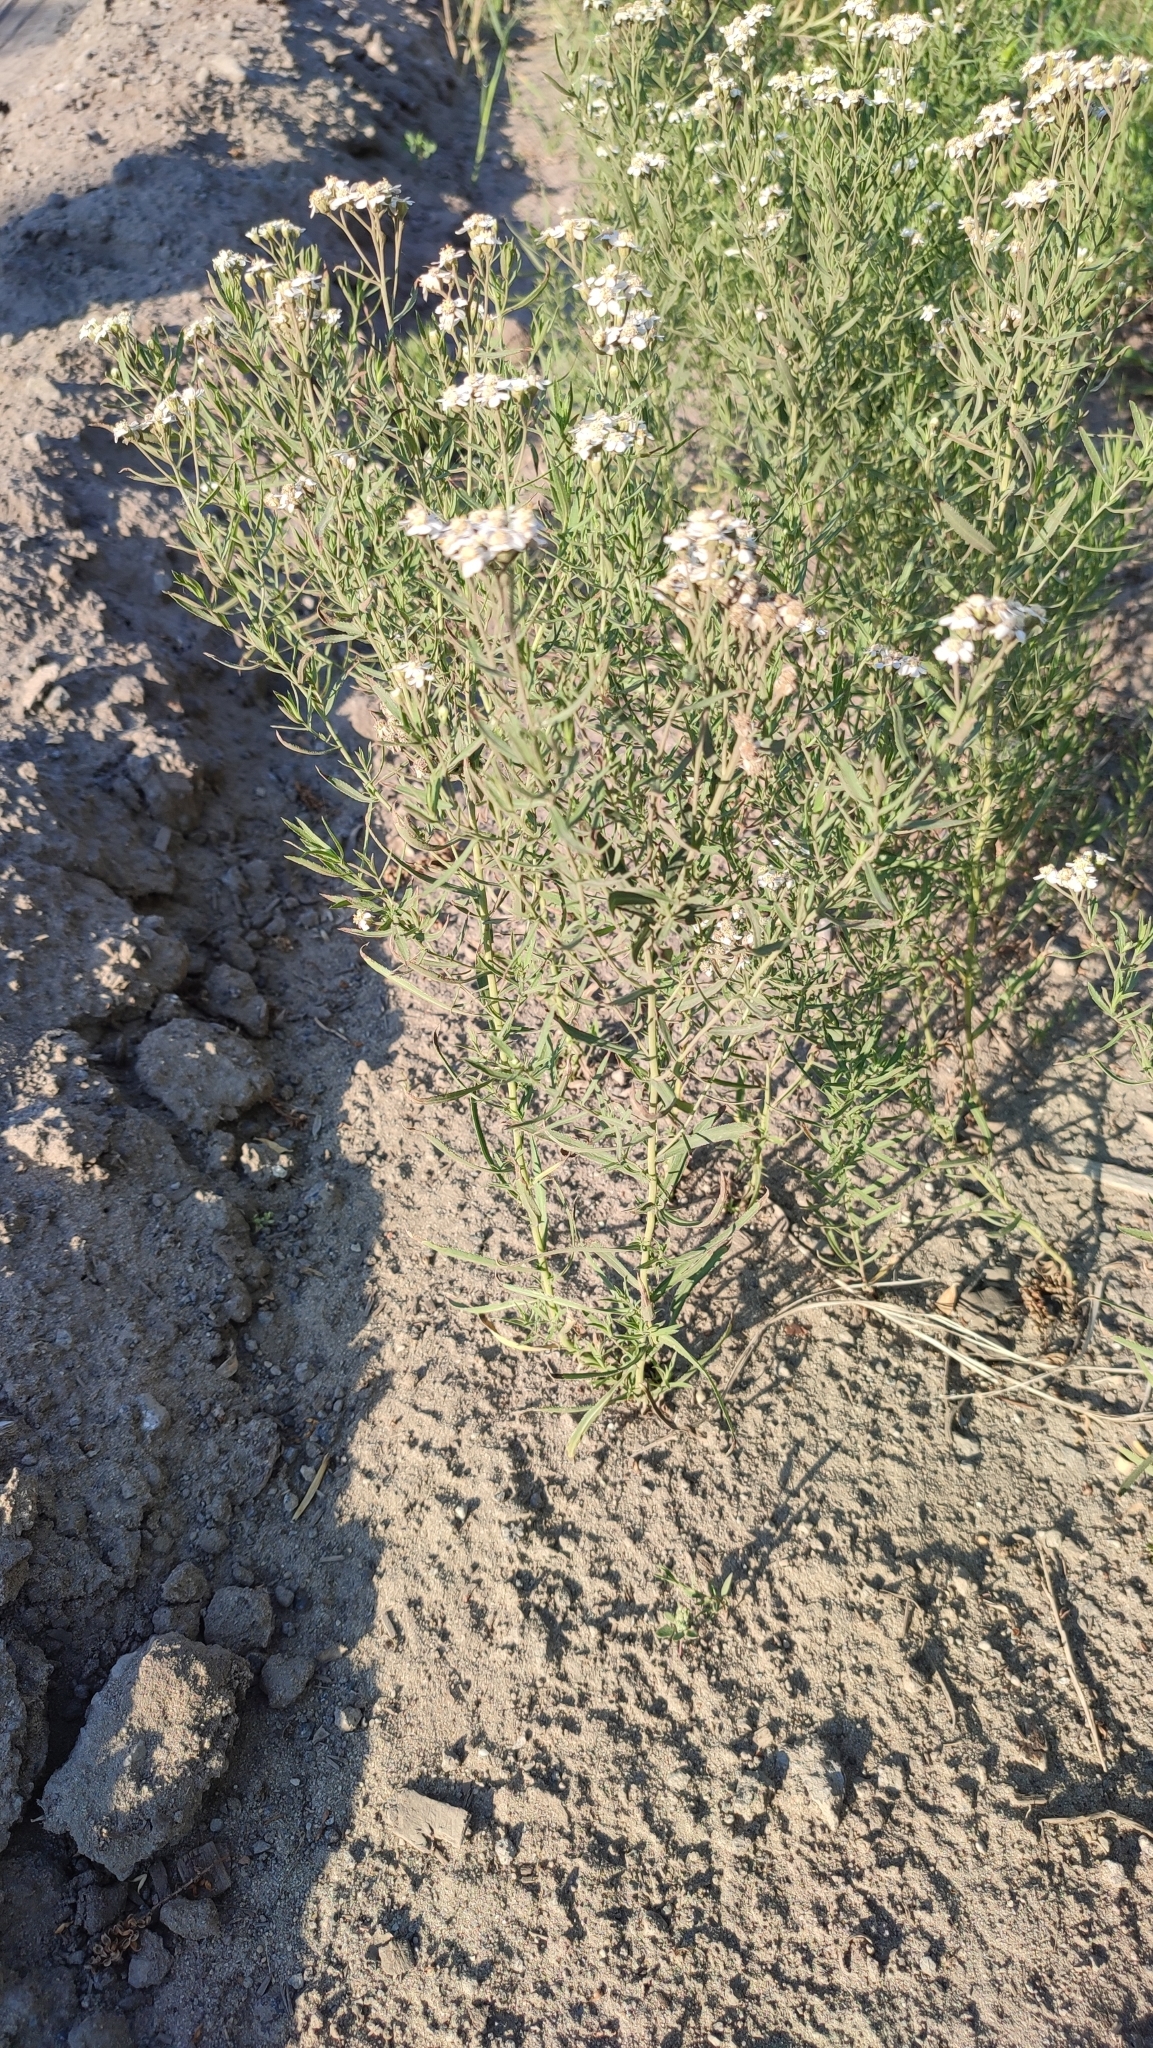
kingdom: Plantae
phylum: Tracheophyta
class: Magnoliopsida
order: Asterales
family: Asteraceae
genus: Achillea
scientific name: Achillea salicifolia
